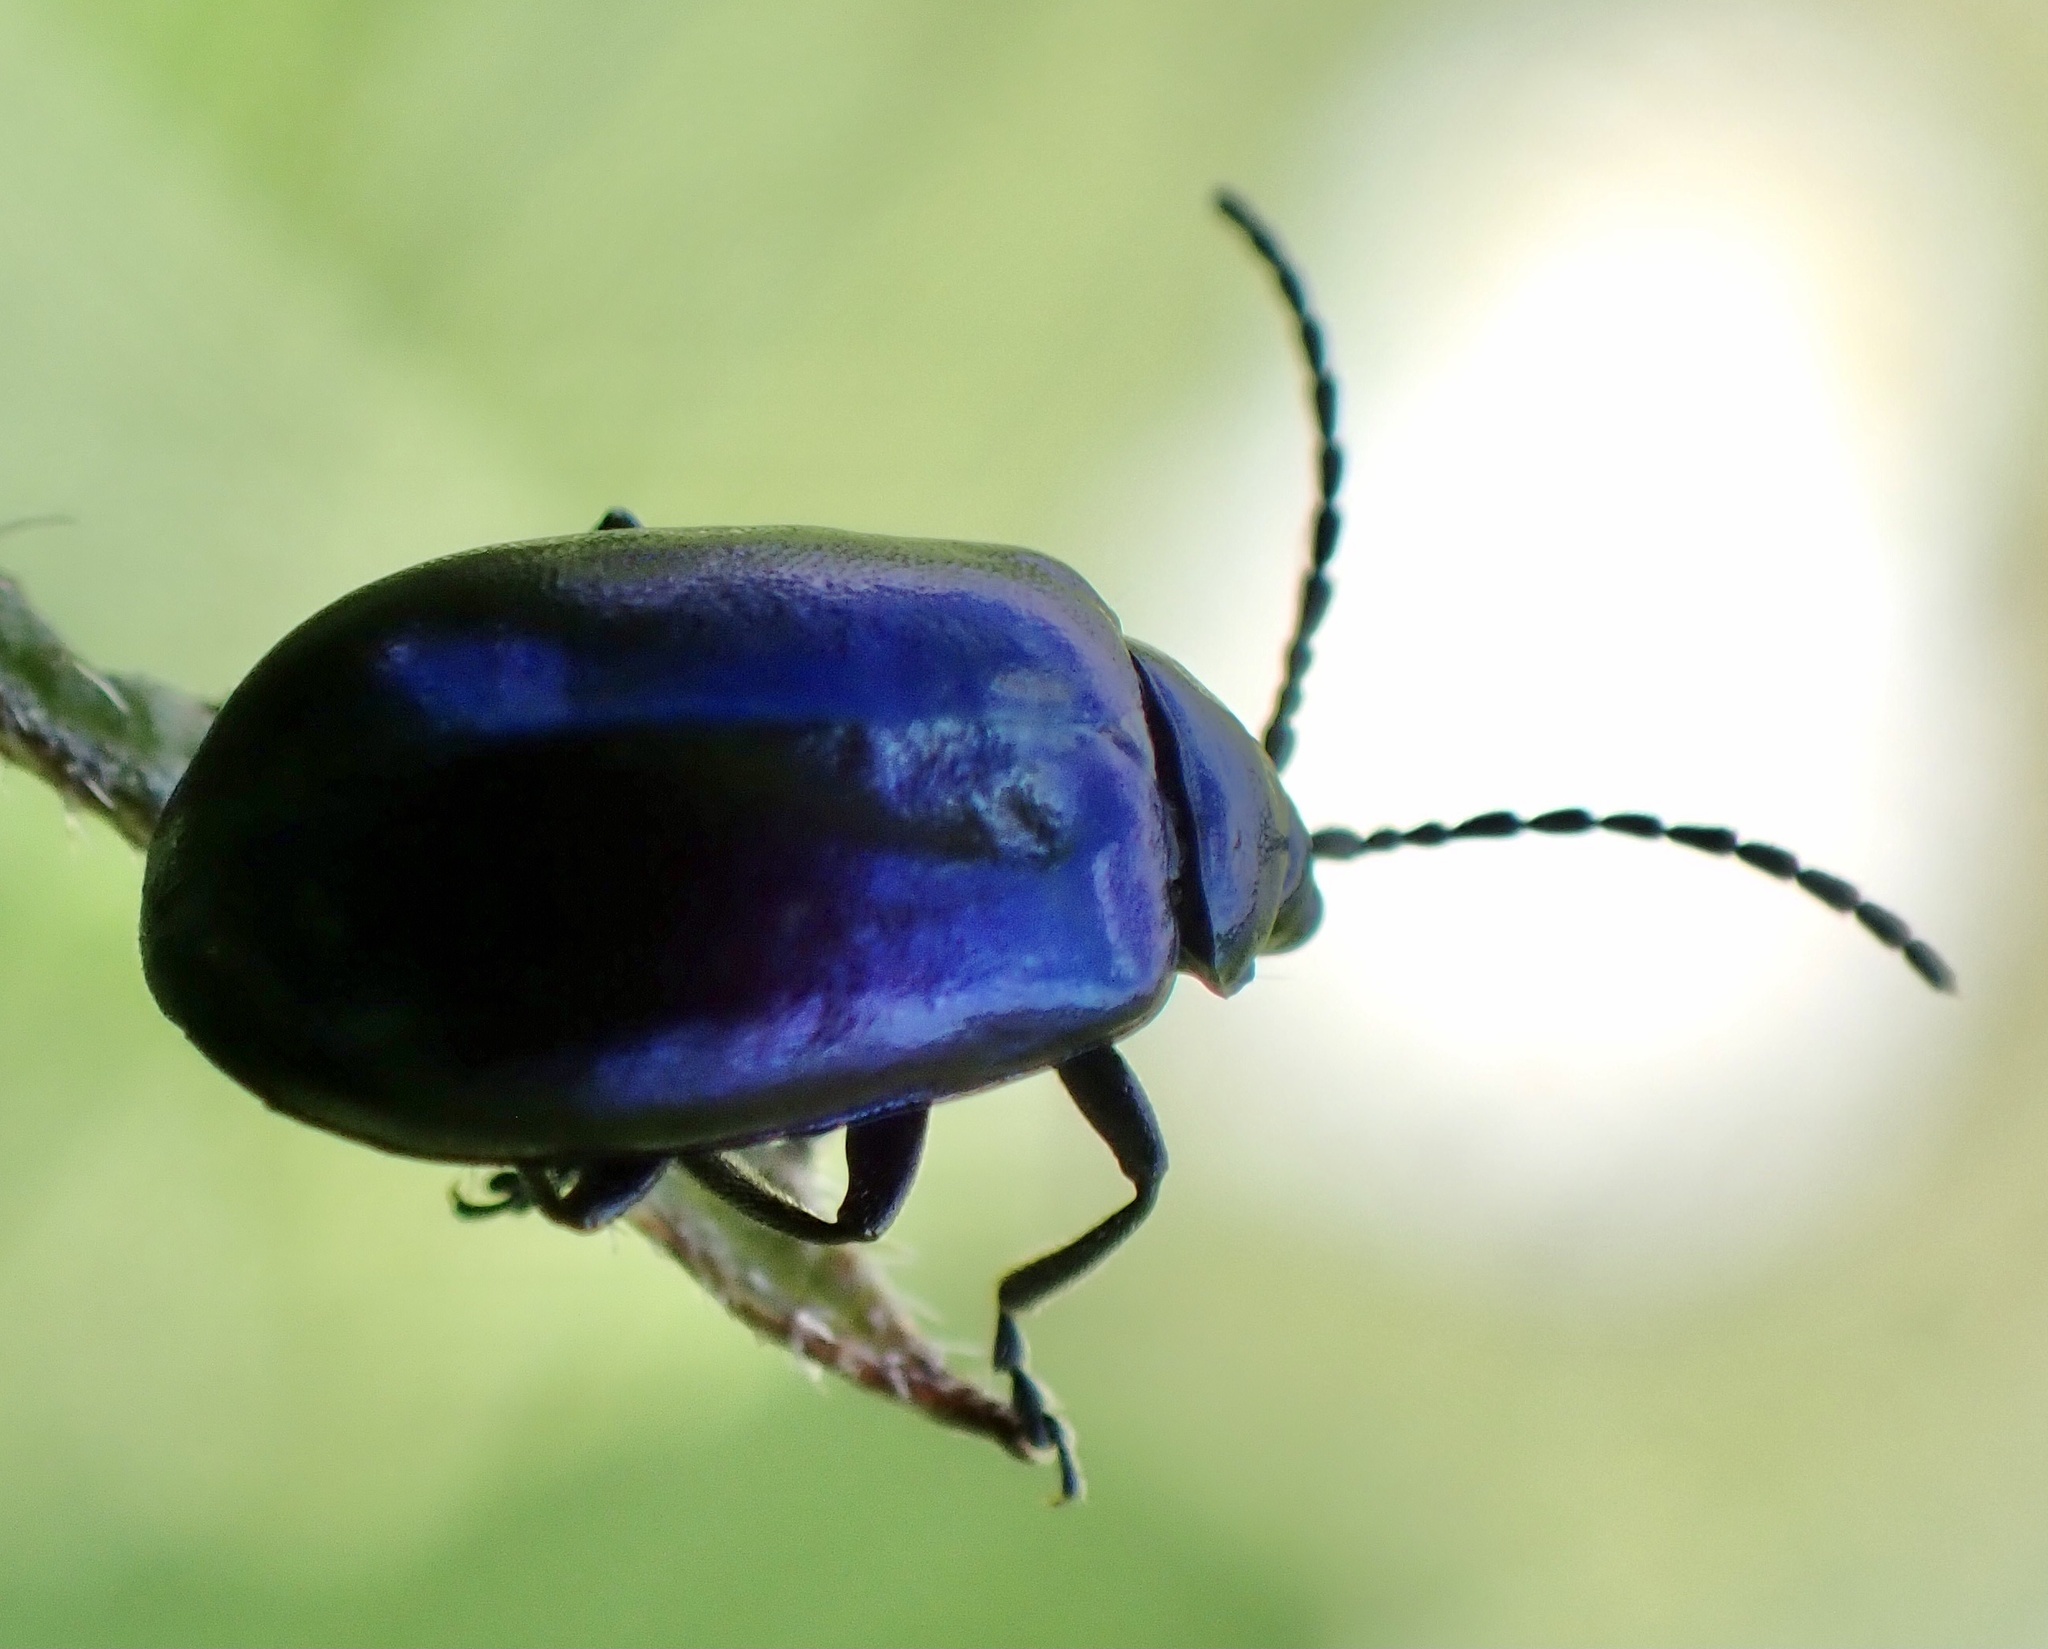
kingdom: Animalia
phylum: Arthropoda
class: Insecta
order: Coleoptera
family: Chrysomelidae
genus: Agelastica
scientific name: Agelastica alni
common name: Alder leaf beetle
